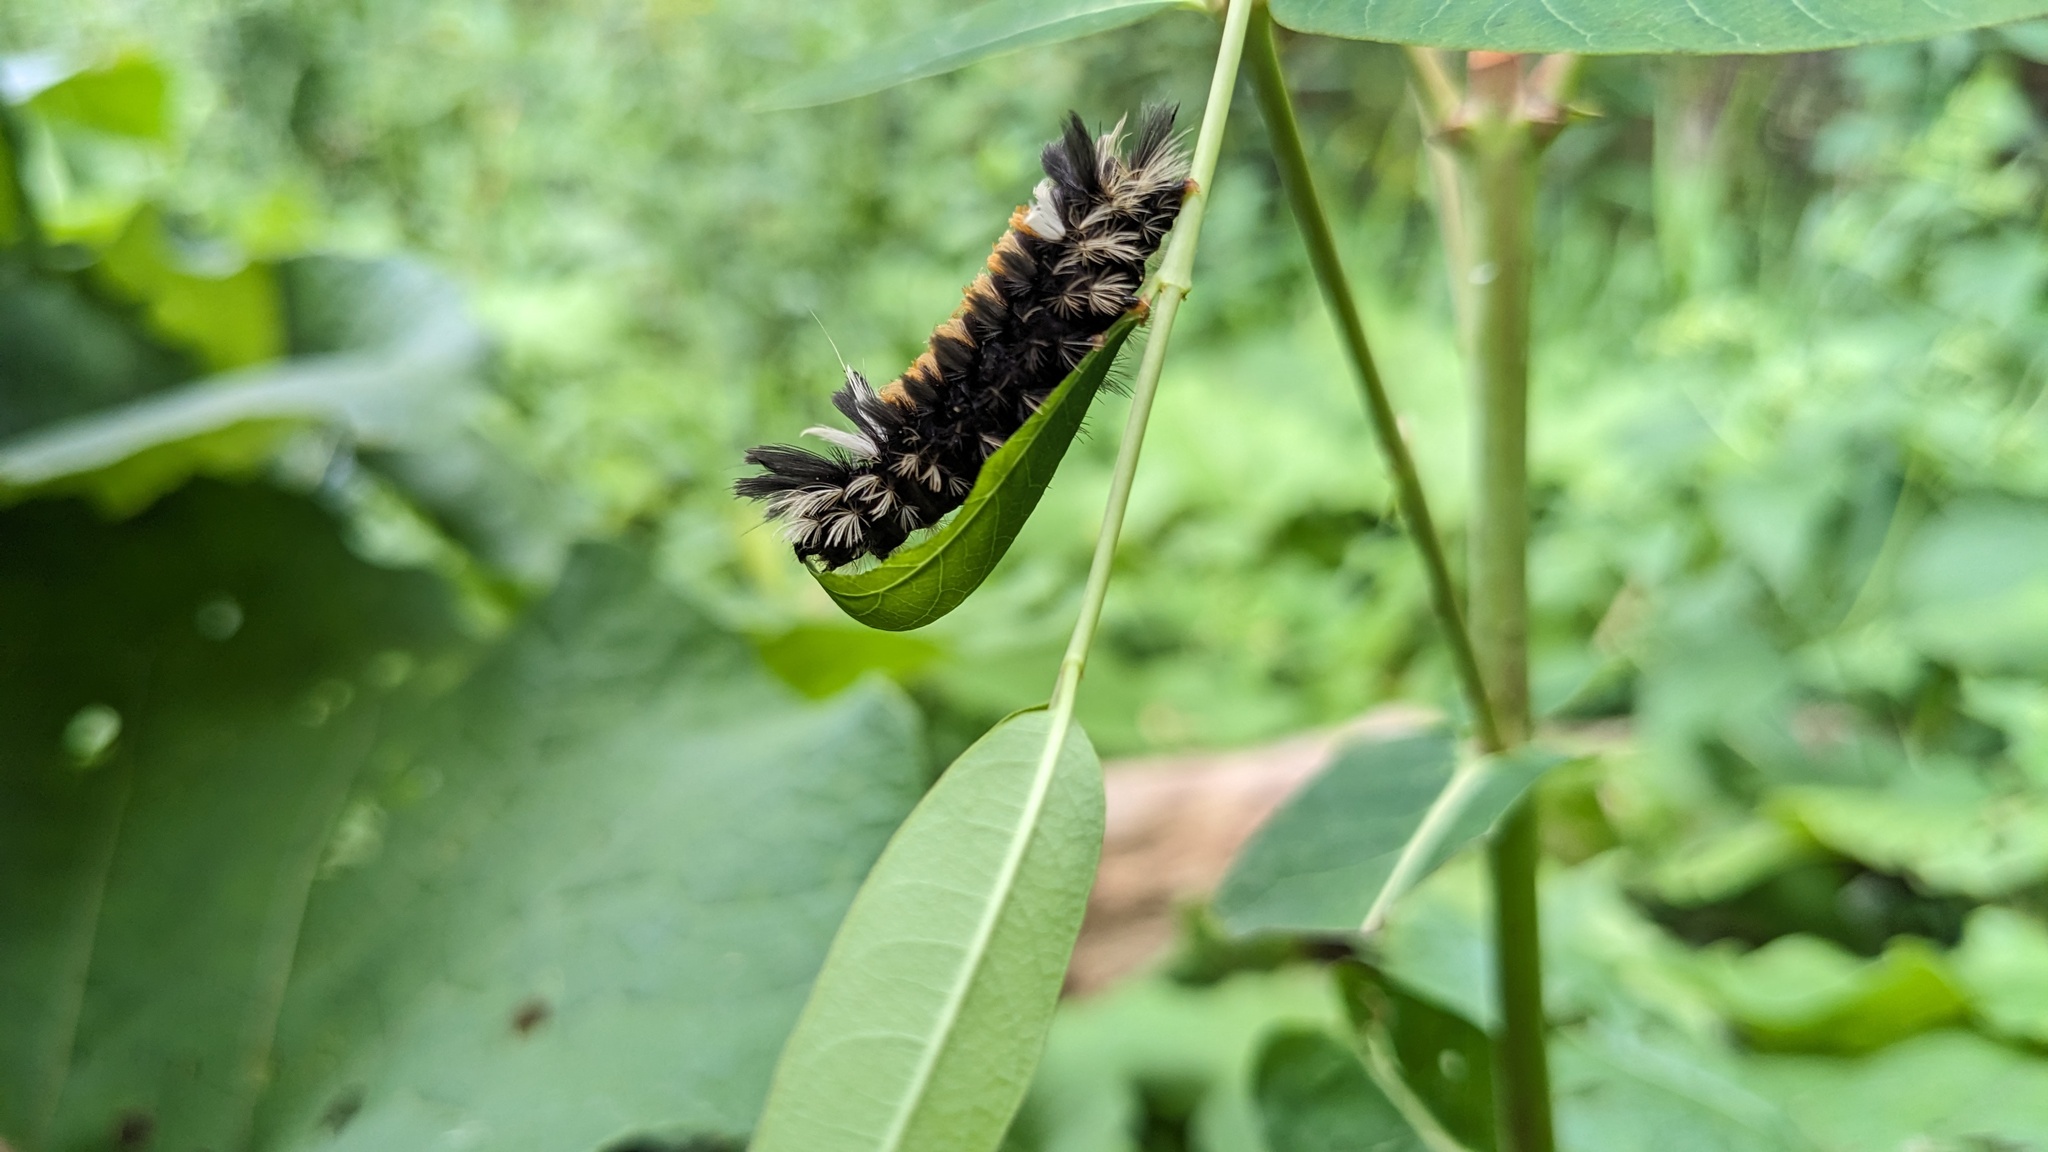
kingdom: Animalia
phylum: Arthropoda
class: Insecta
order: Lepidoptera
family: Erebidae
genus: Euchaetes
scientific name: Euchaetes egle
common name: Milkweed tussock moth
